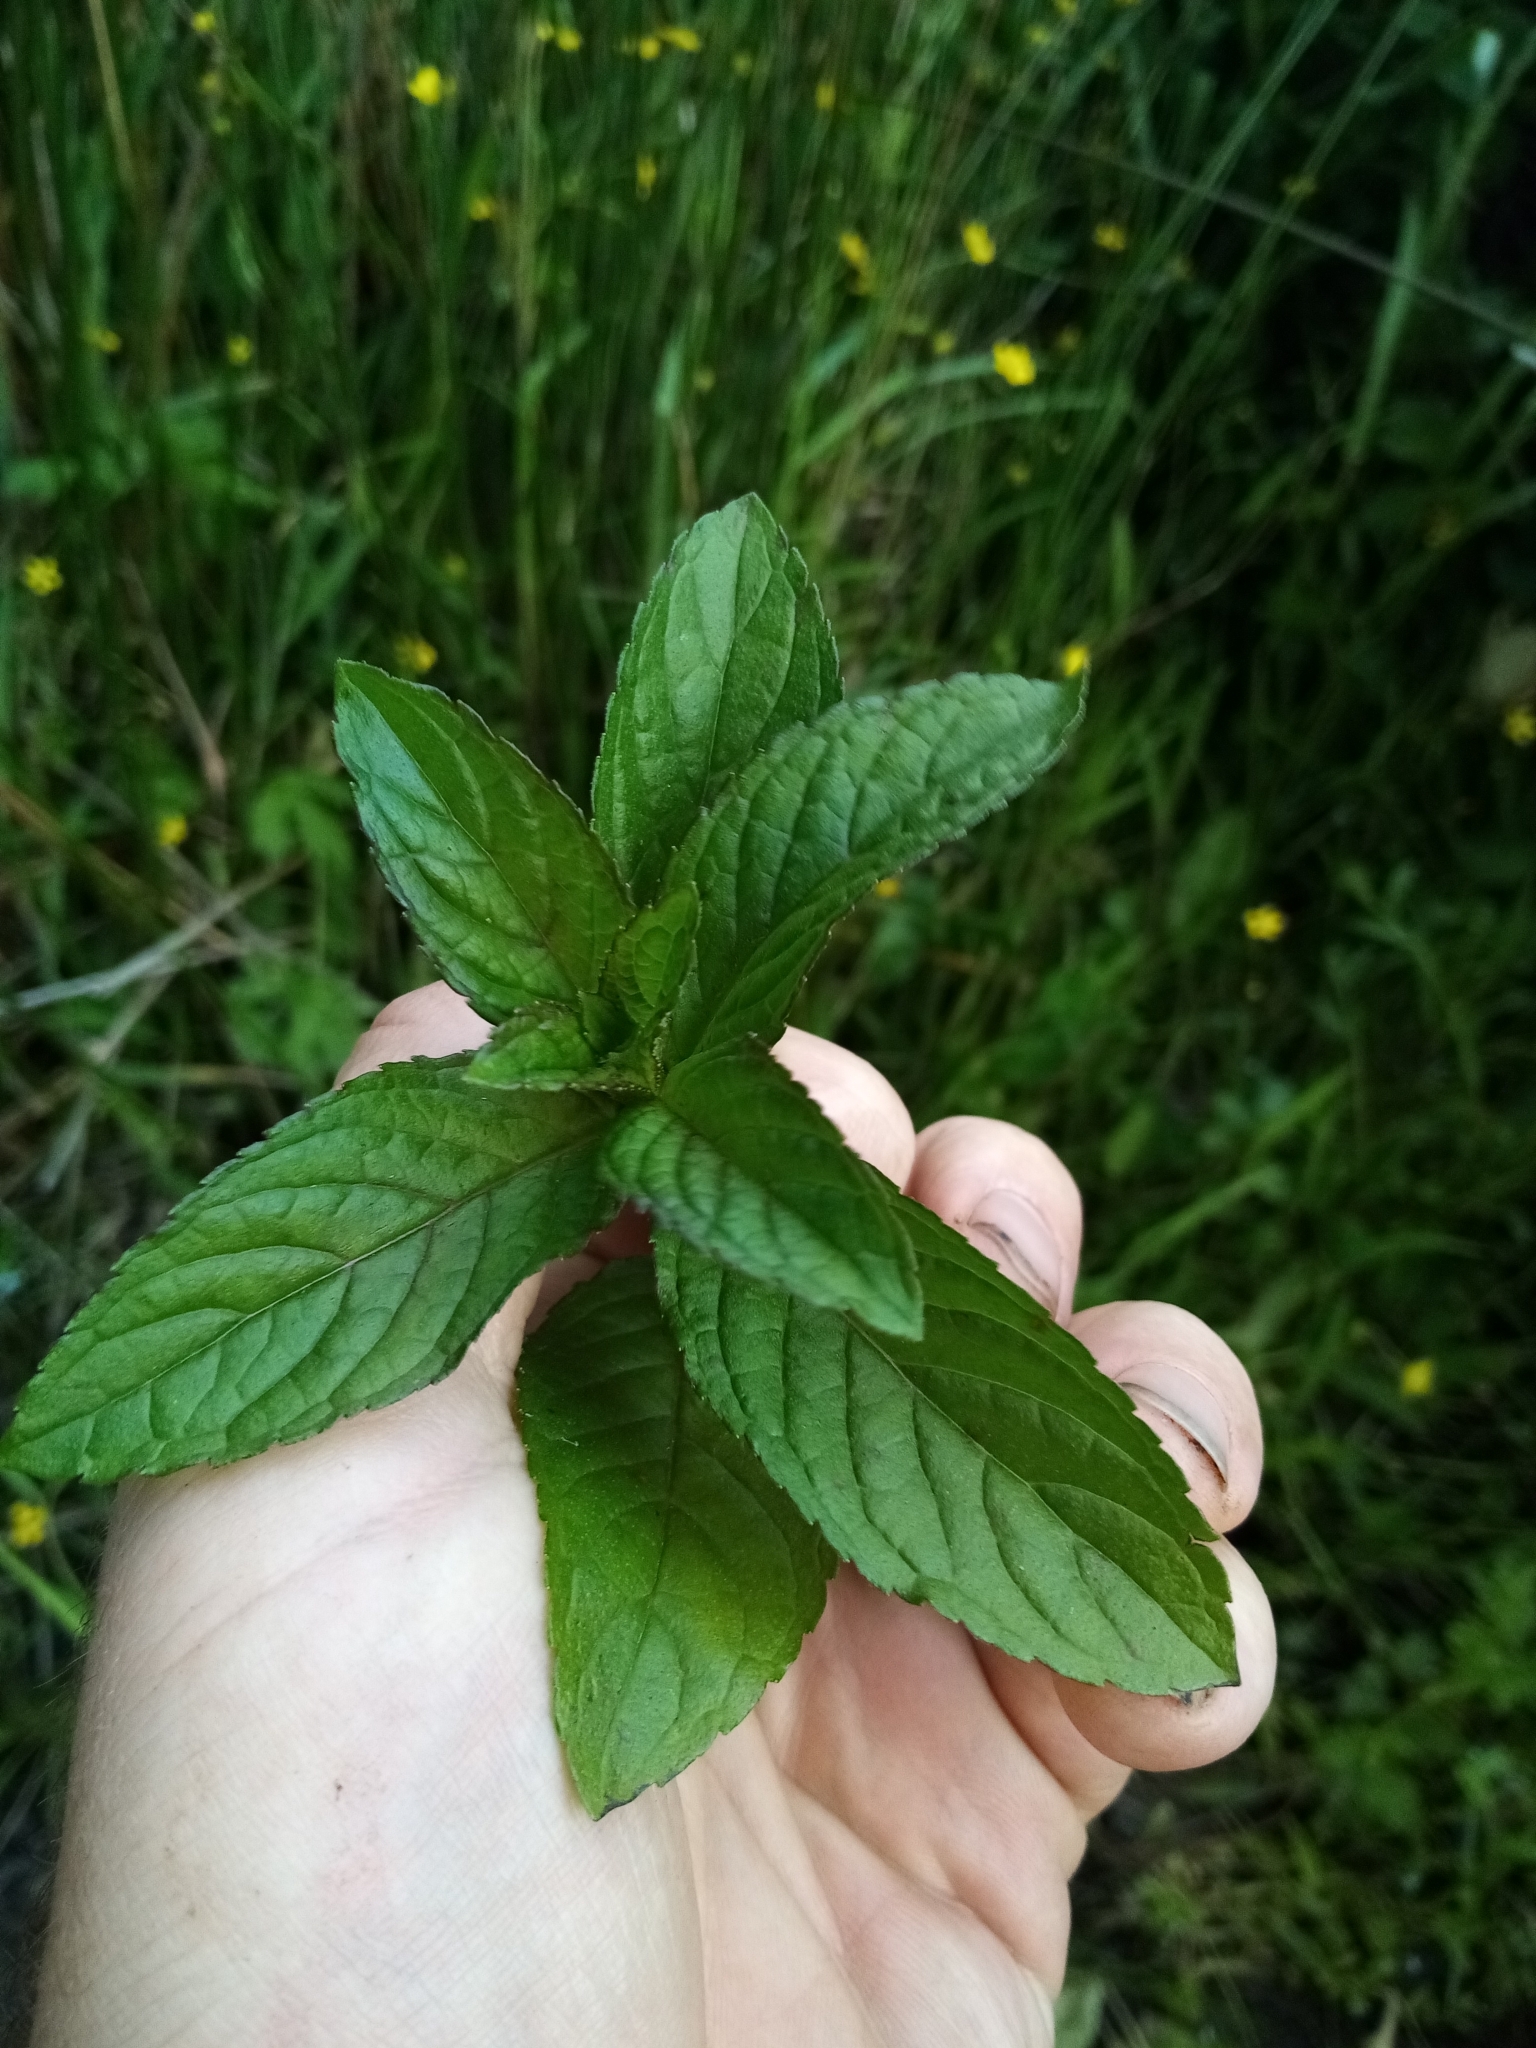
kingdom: Plantae
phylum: Tracheophyta
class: Magnoliopsida
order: Lamiales
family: Lamiaceae
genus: Mentha
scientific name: Mentha piperita
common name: Peppermint
